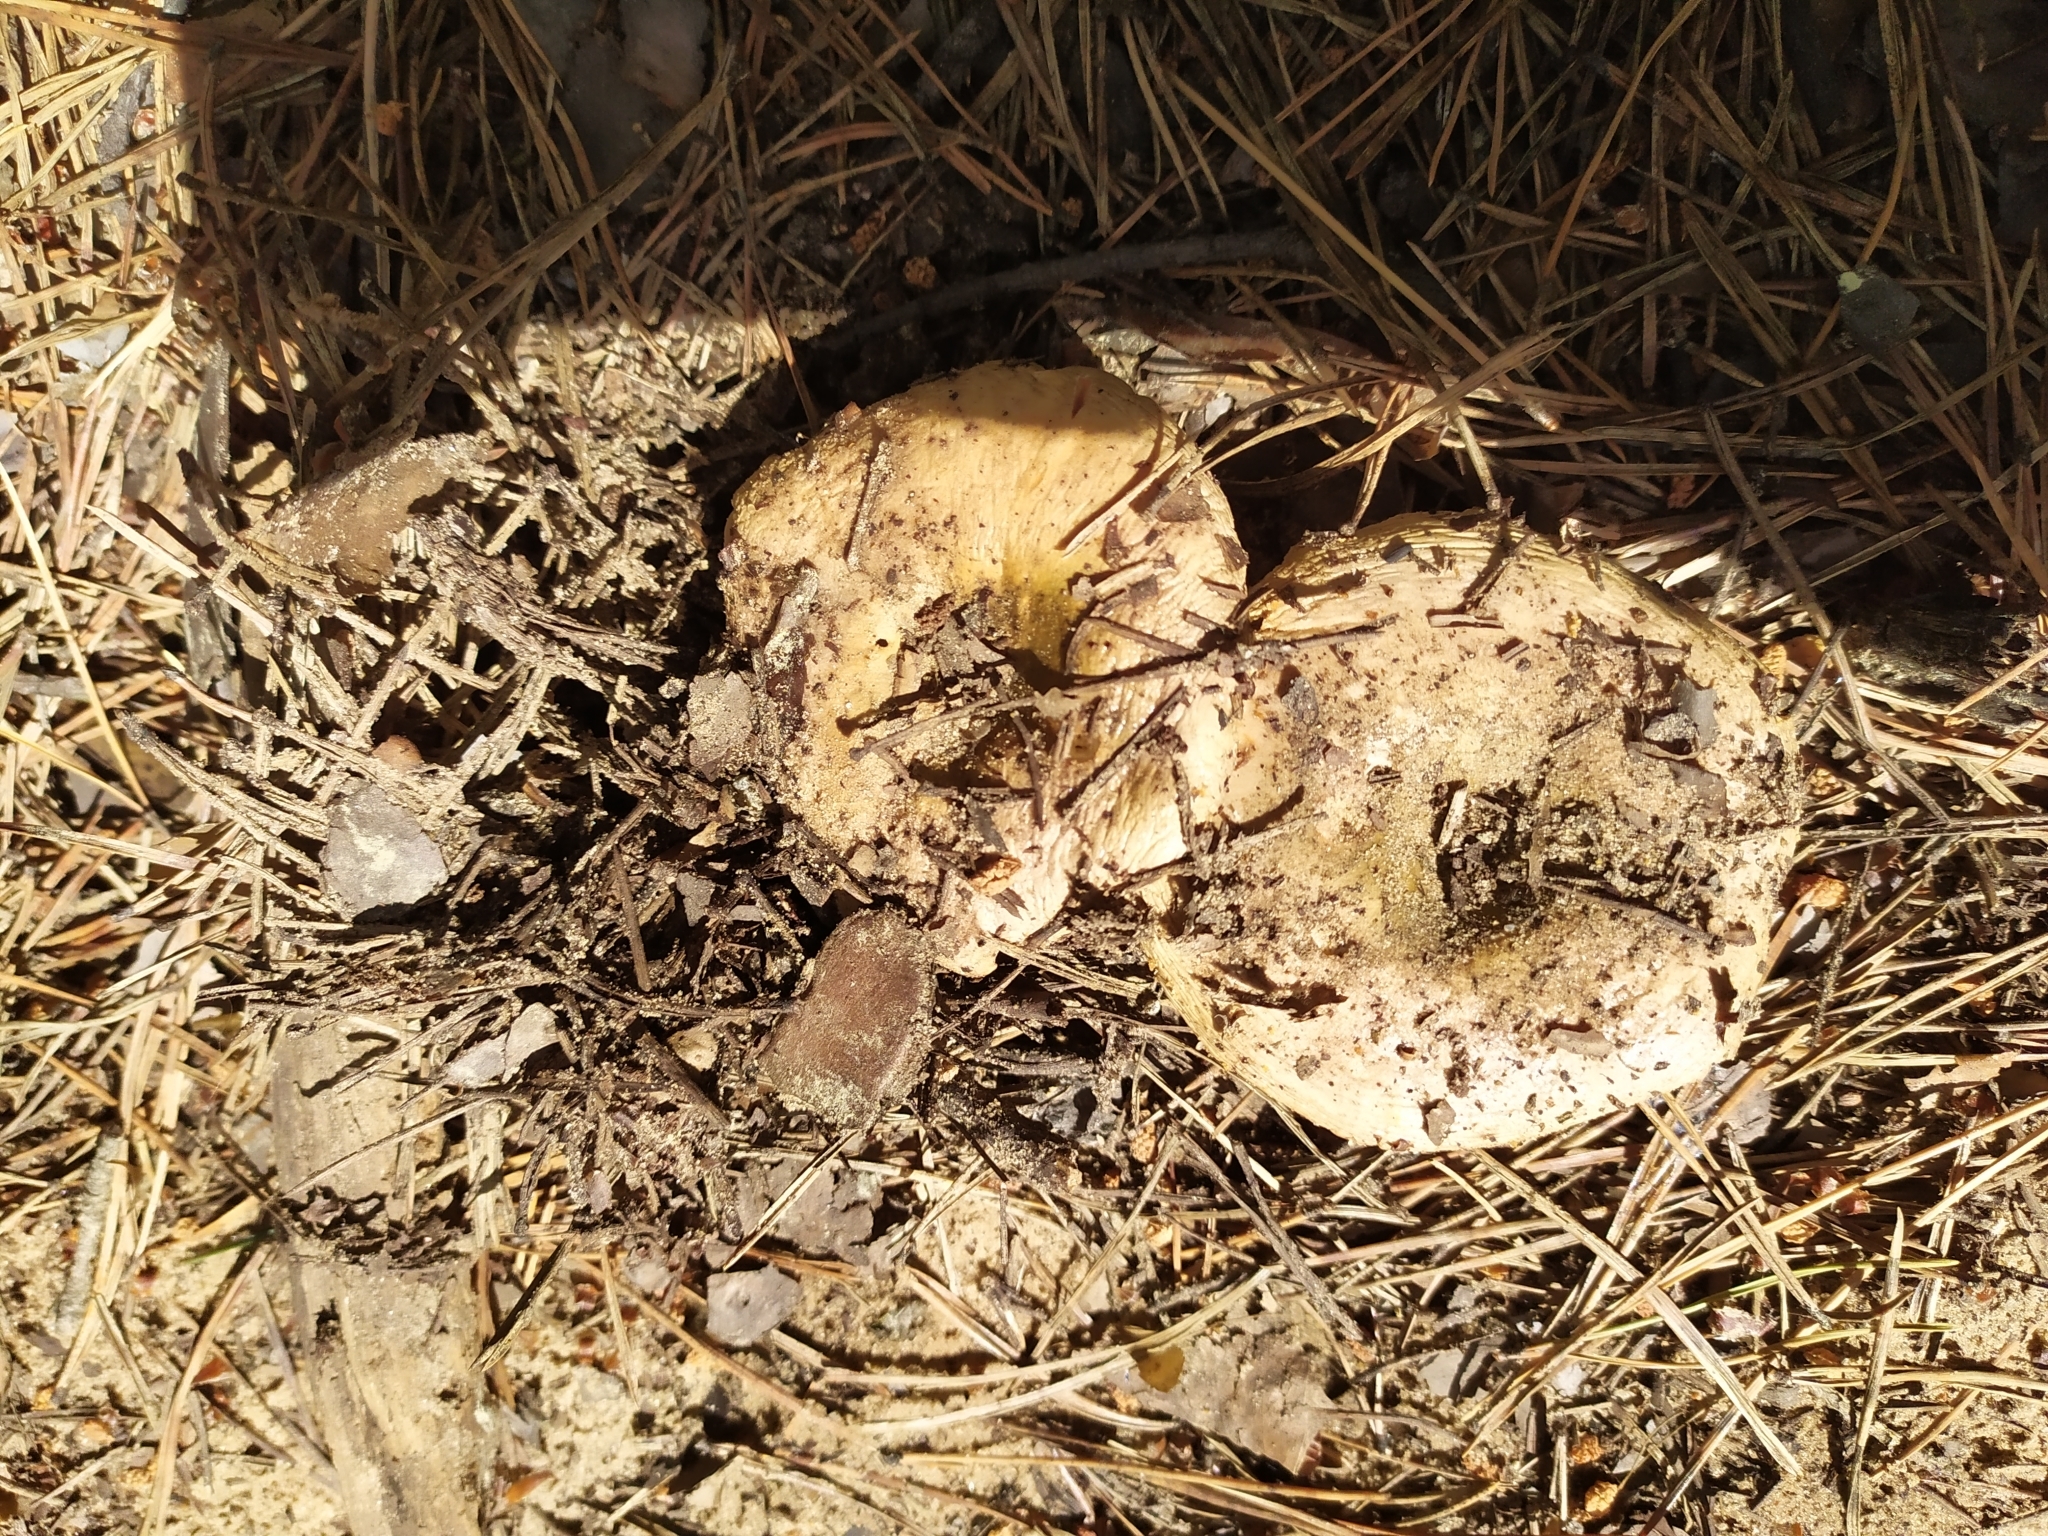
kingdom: Fungi
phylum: Basidiomycota
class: Agaricomycetes
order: Russulales
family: Russulaceae
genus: Russula
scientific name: Russula delica
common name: Milk white brittlegill
